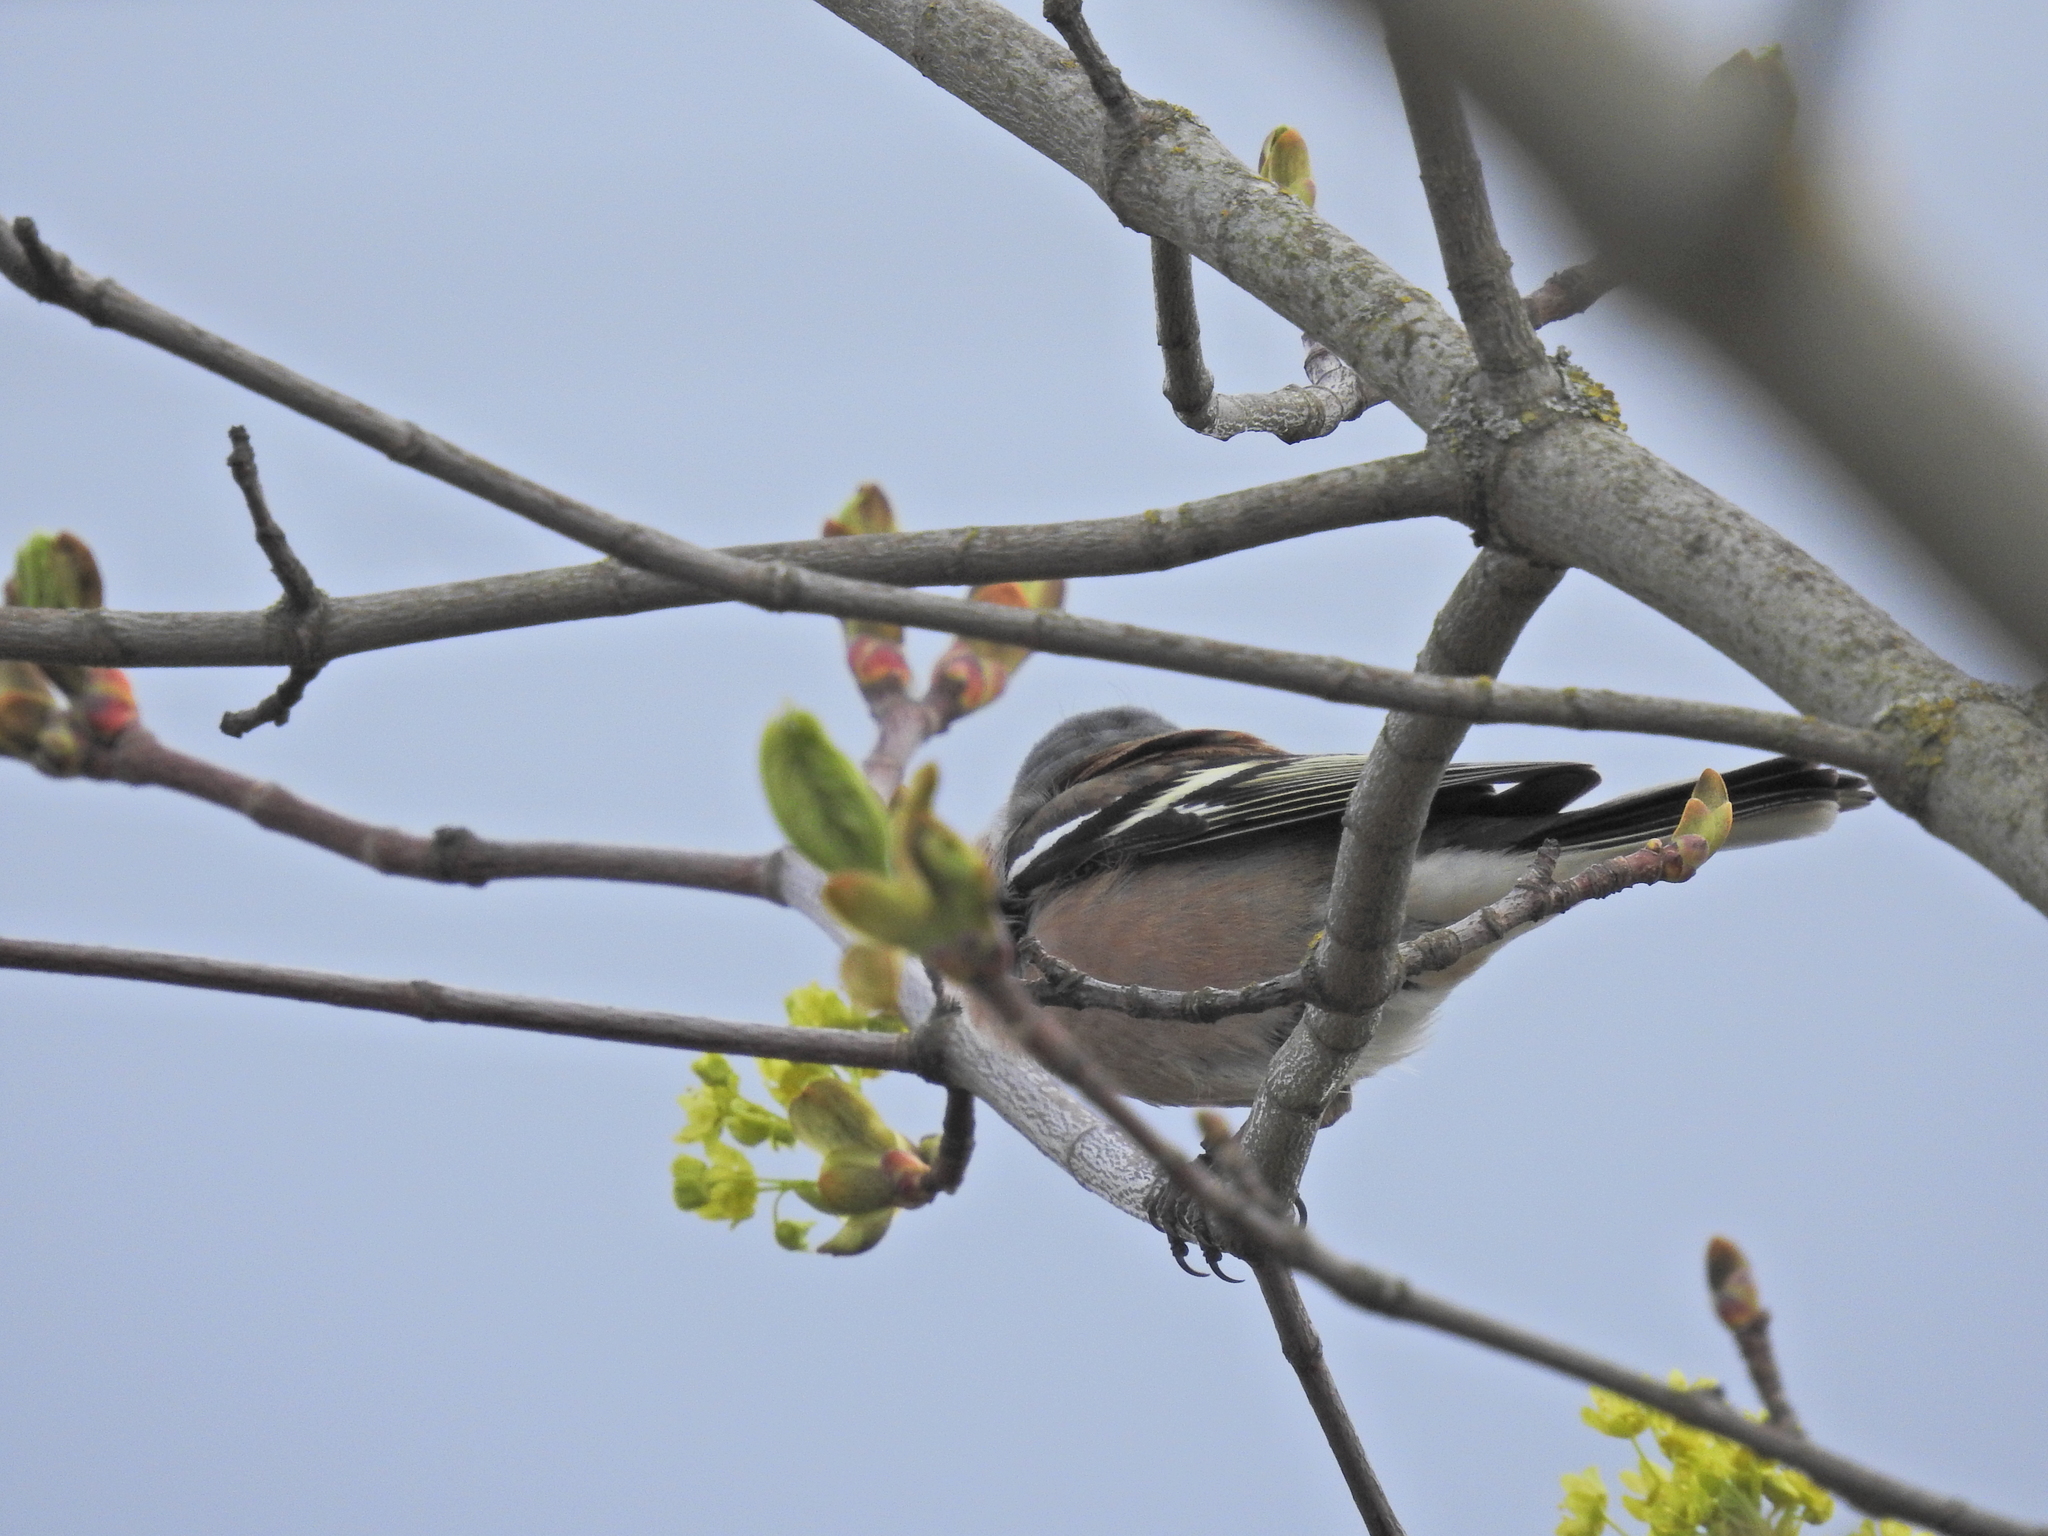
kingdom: Animalia
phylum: Chordata
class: Aves
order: Passeriformes
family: Fringillidae
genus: Fringilla
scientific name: Fringilla coelebs
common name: Common chaffinch
